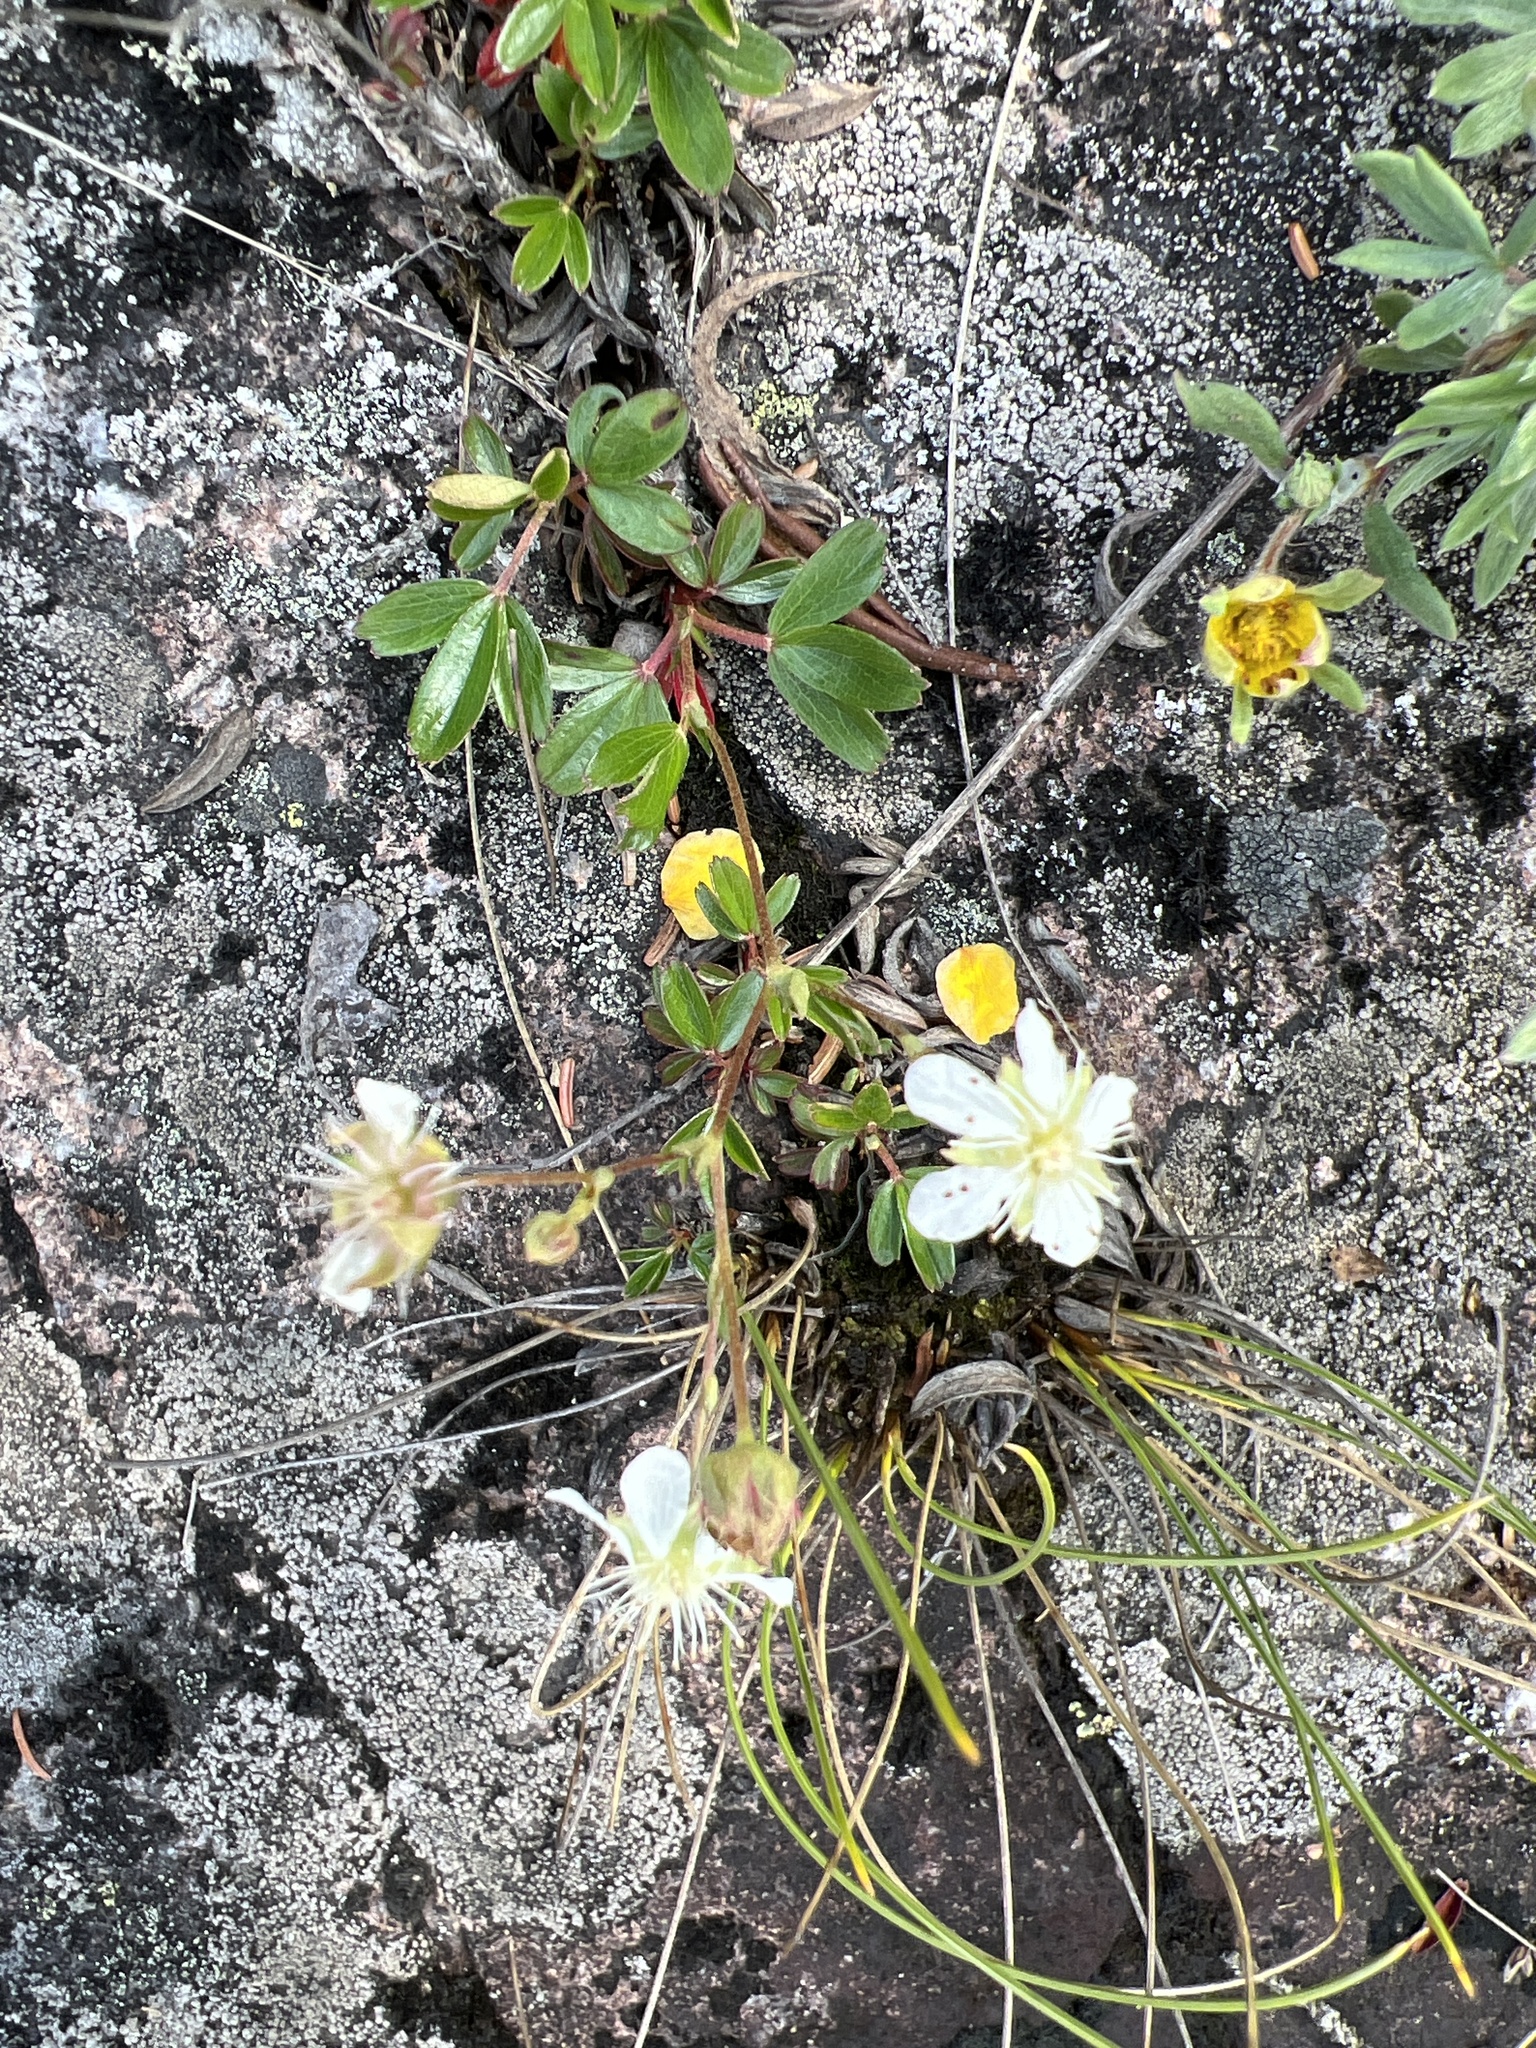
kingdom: Plantae
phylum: Tracheophyta
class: Magnoliopsida
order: Rosales
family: Rosaceae
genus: Sibbaldia
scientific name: Sibbaldia tridentata
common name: Three-toothed cinquefoil
